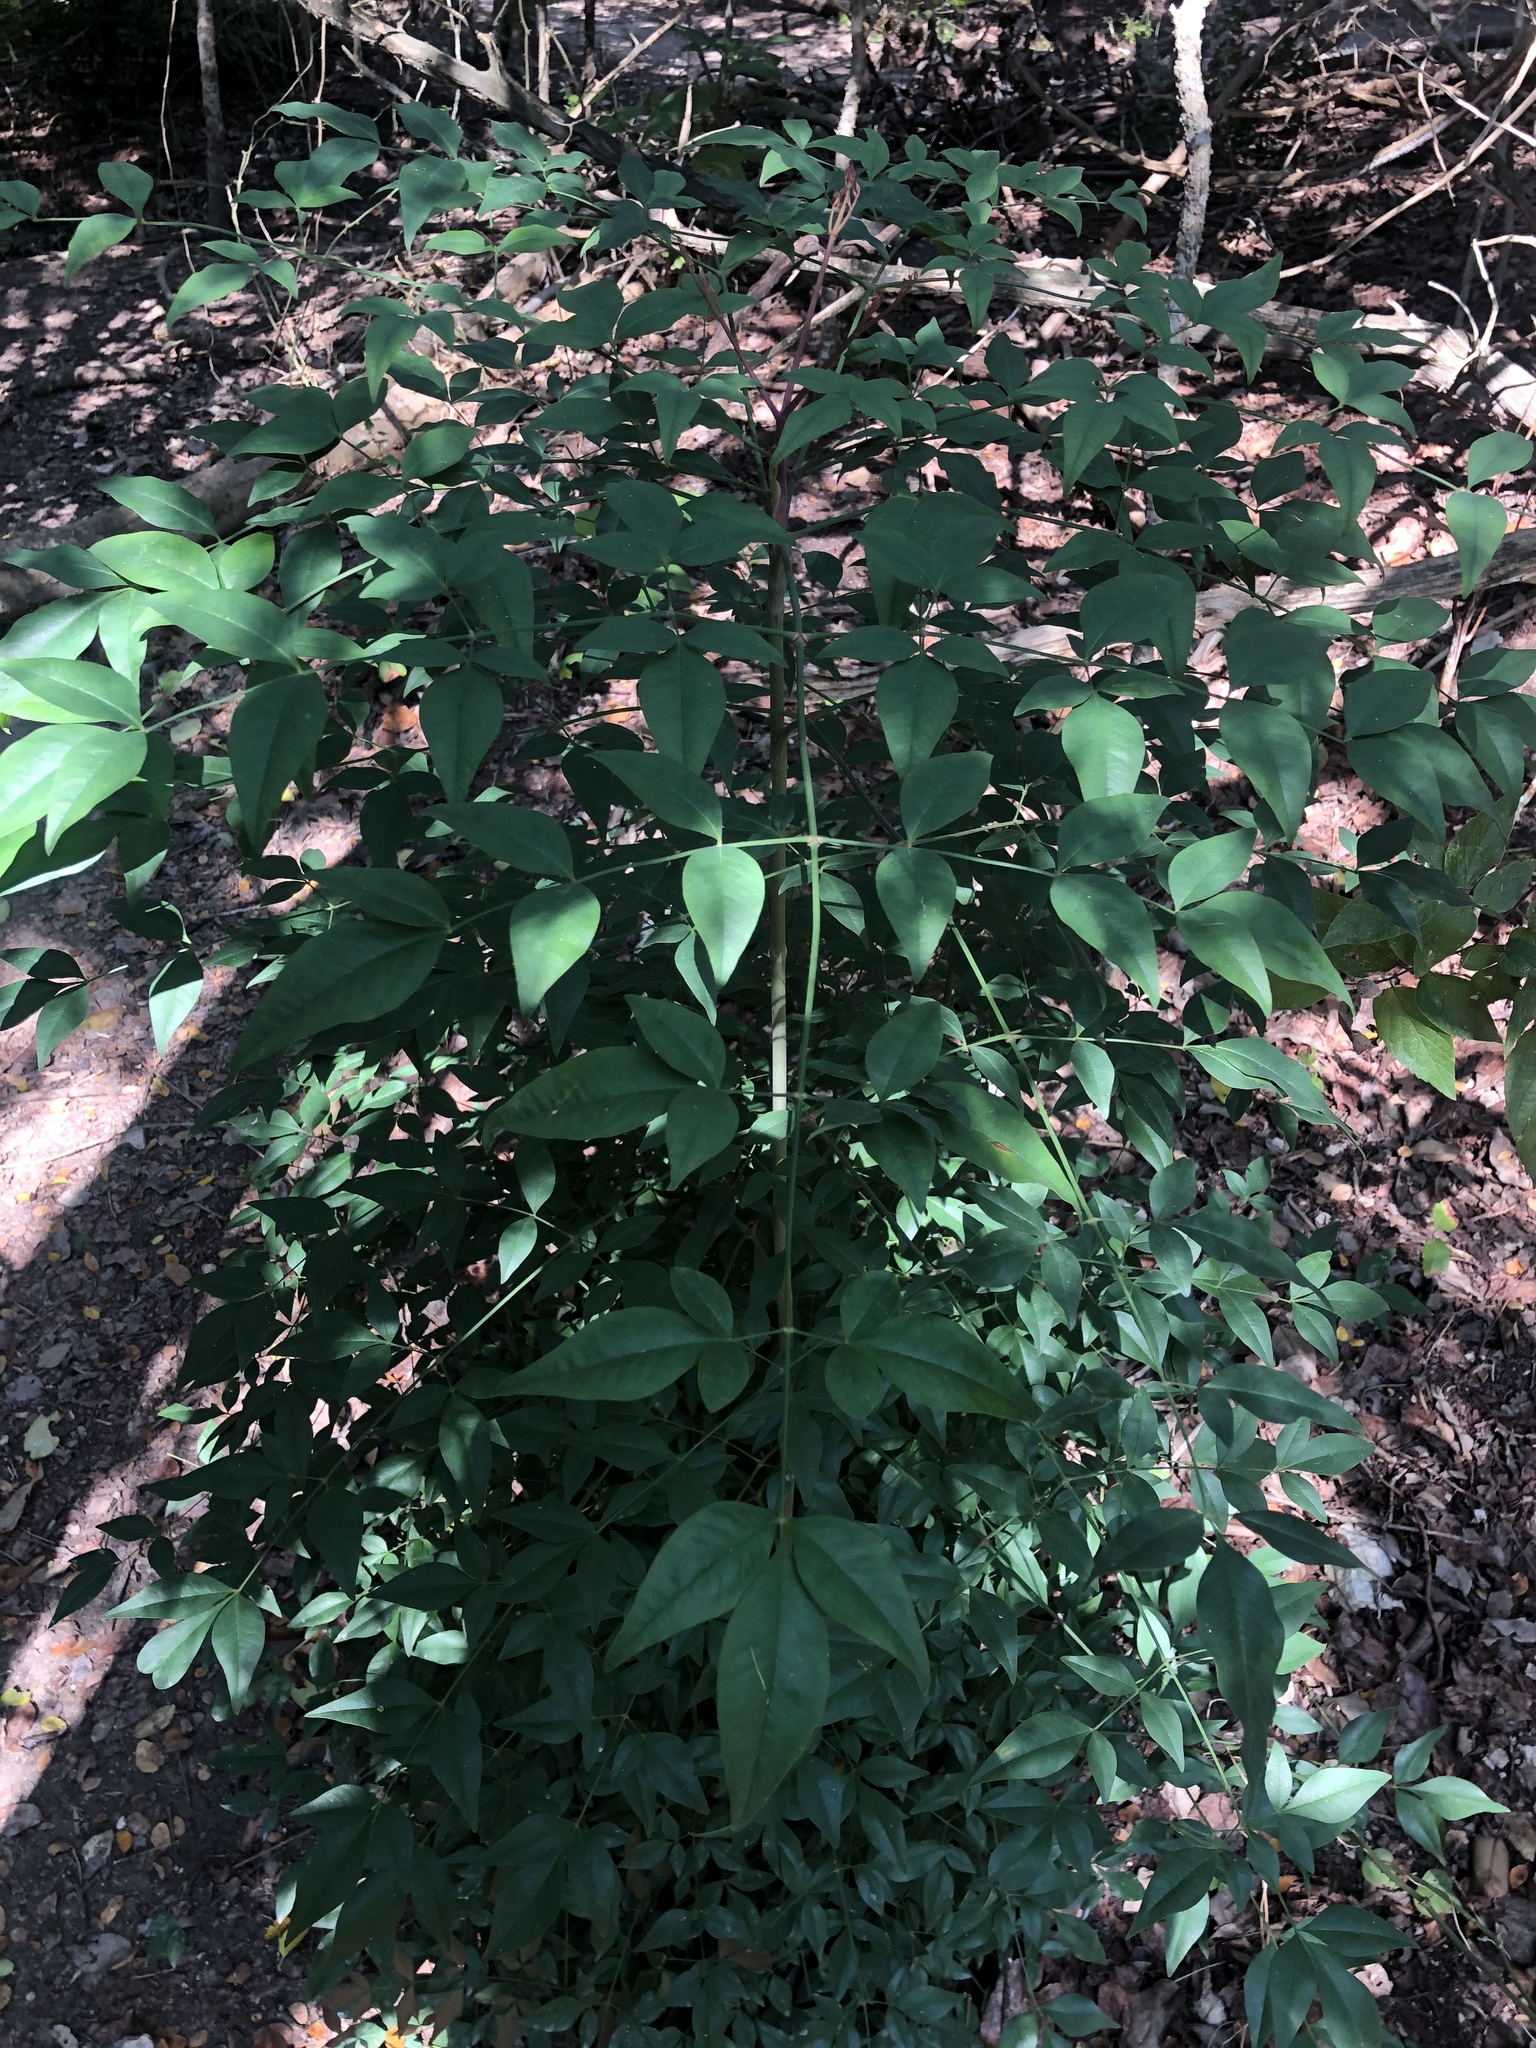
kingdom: Plantae
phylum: Tracheophyta
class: Magnoliopsida
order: Ranunculales
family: Berberidaceae
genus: Nandina
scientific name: Nandina domestica
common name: Sacred bamboo
